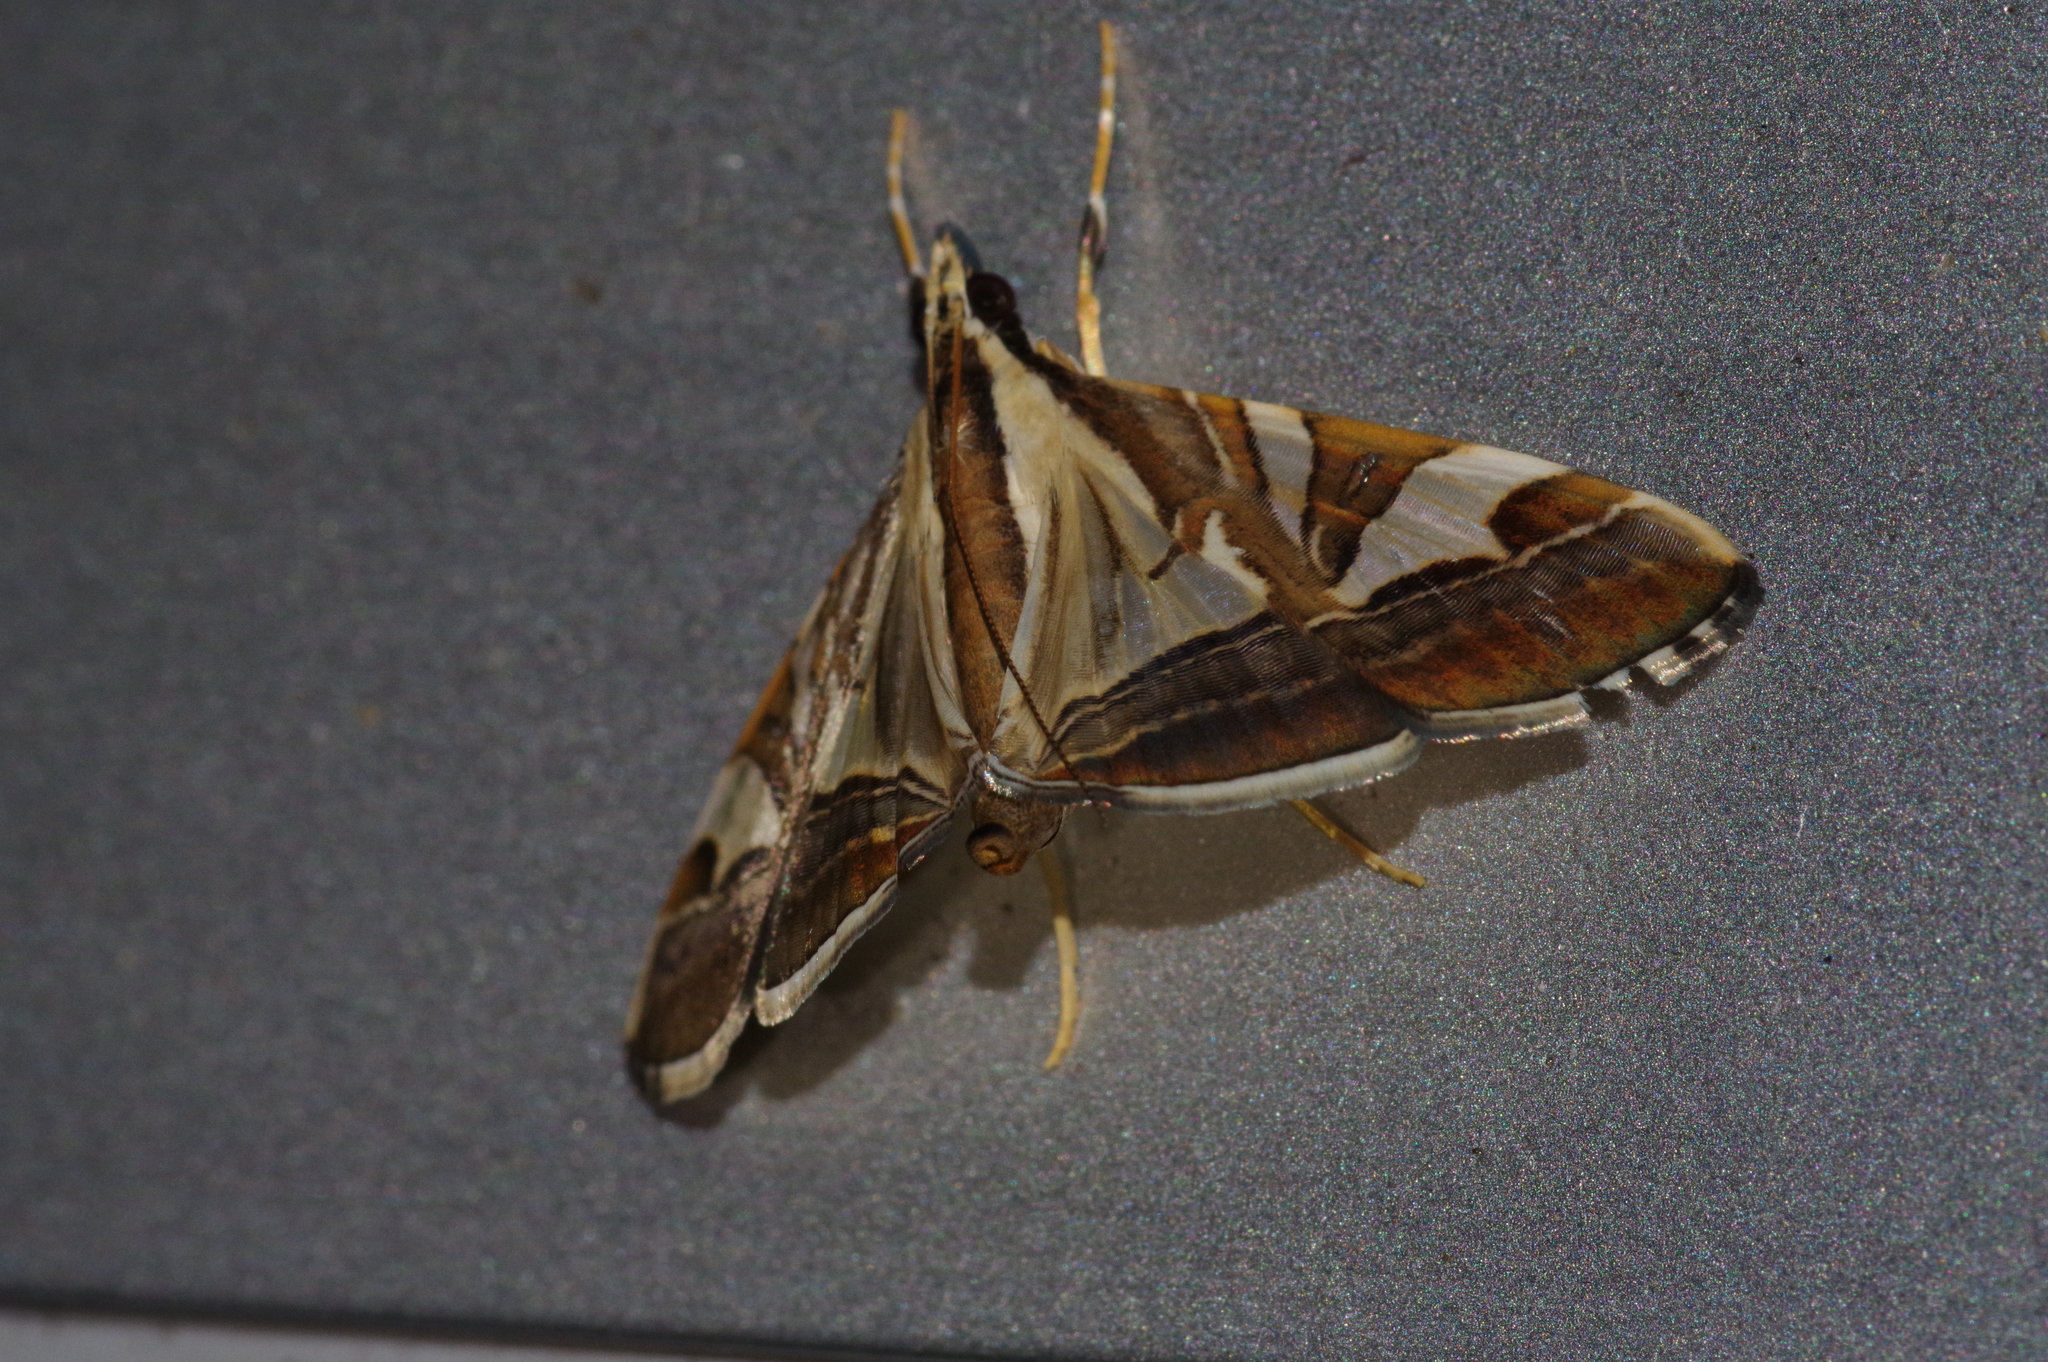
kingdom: Animalia
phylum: Arthropoda
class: Insecta
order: Lepidoptera
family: Crambidae
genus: Agrioglypta
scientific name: Agrioglypta itysalis
